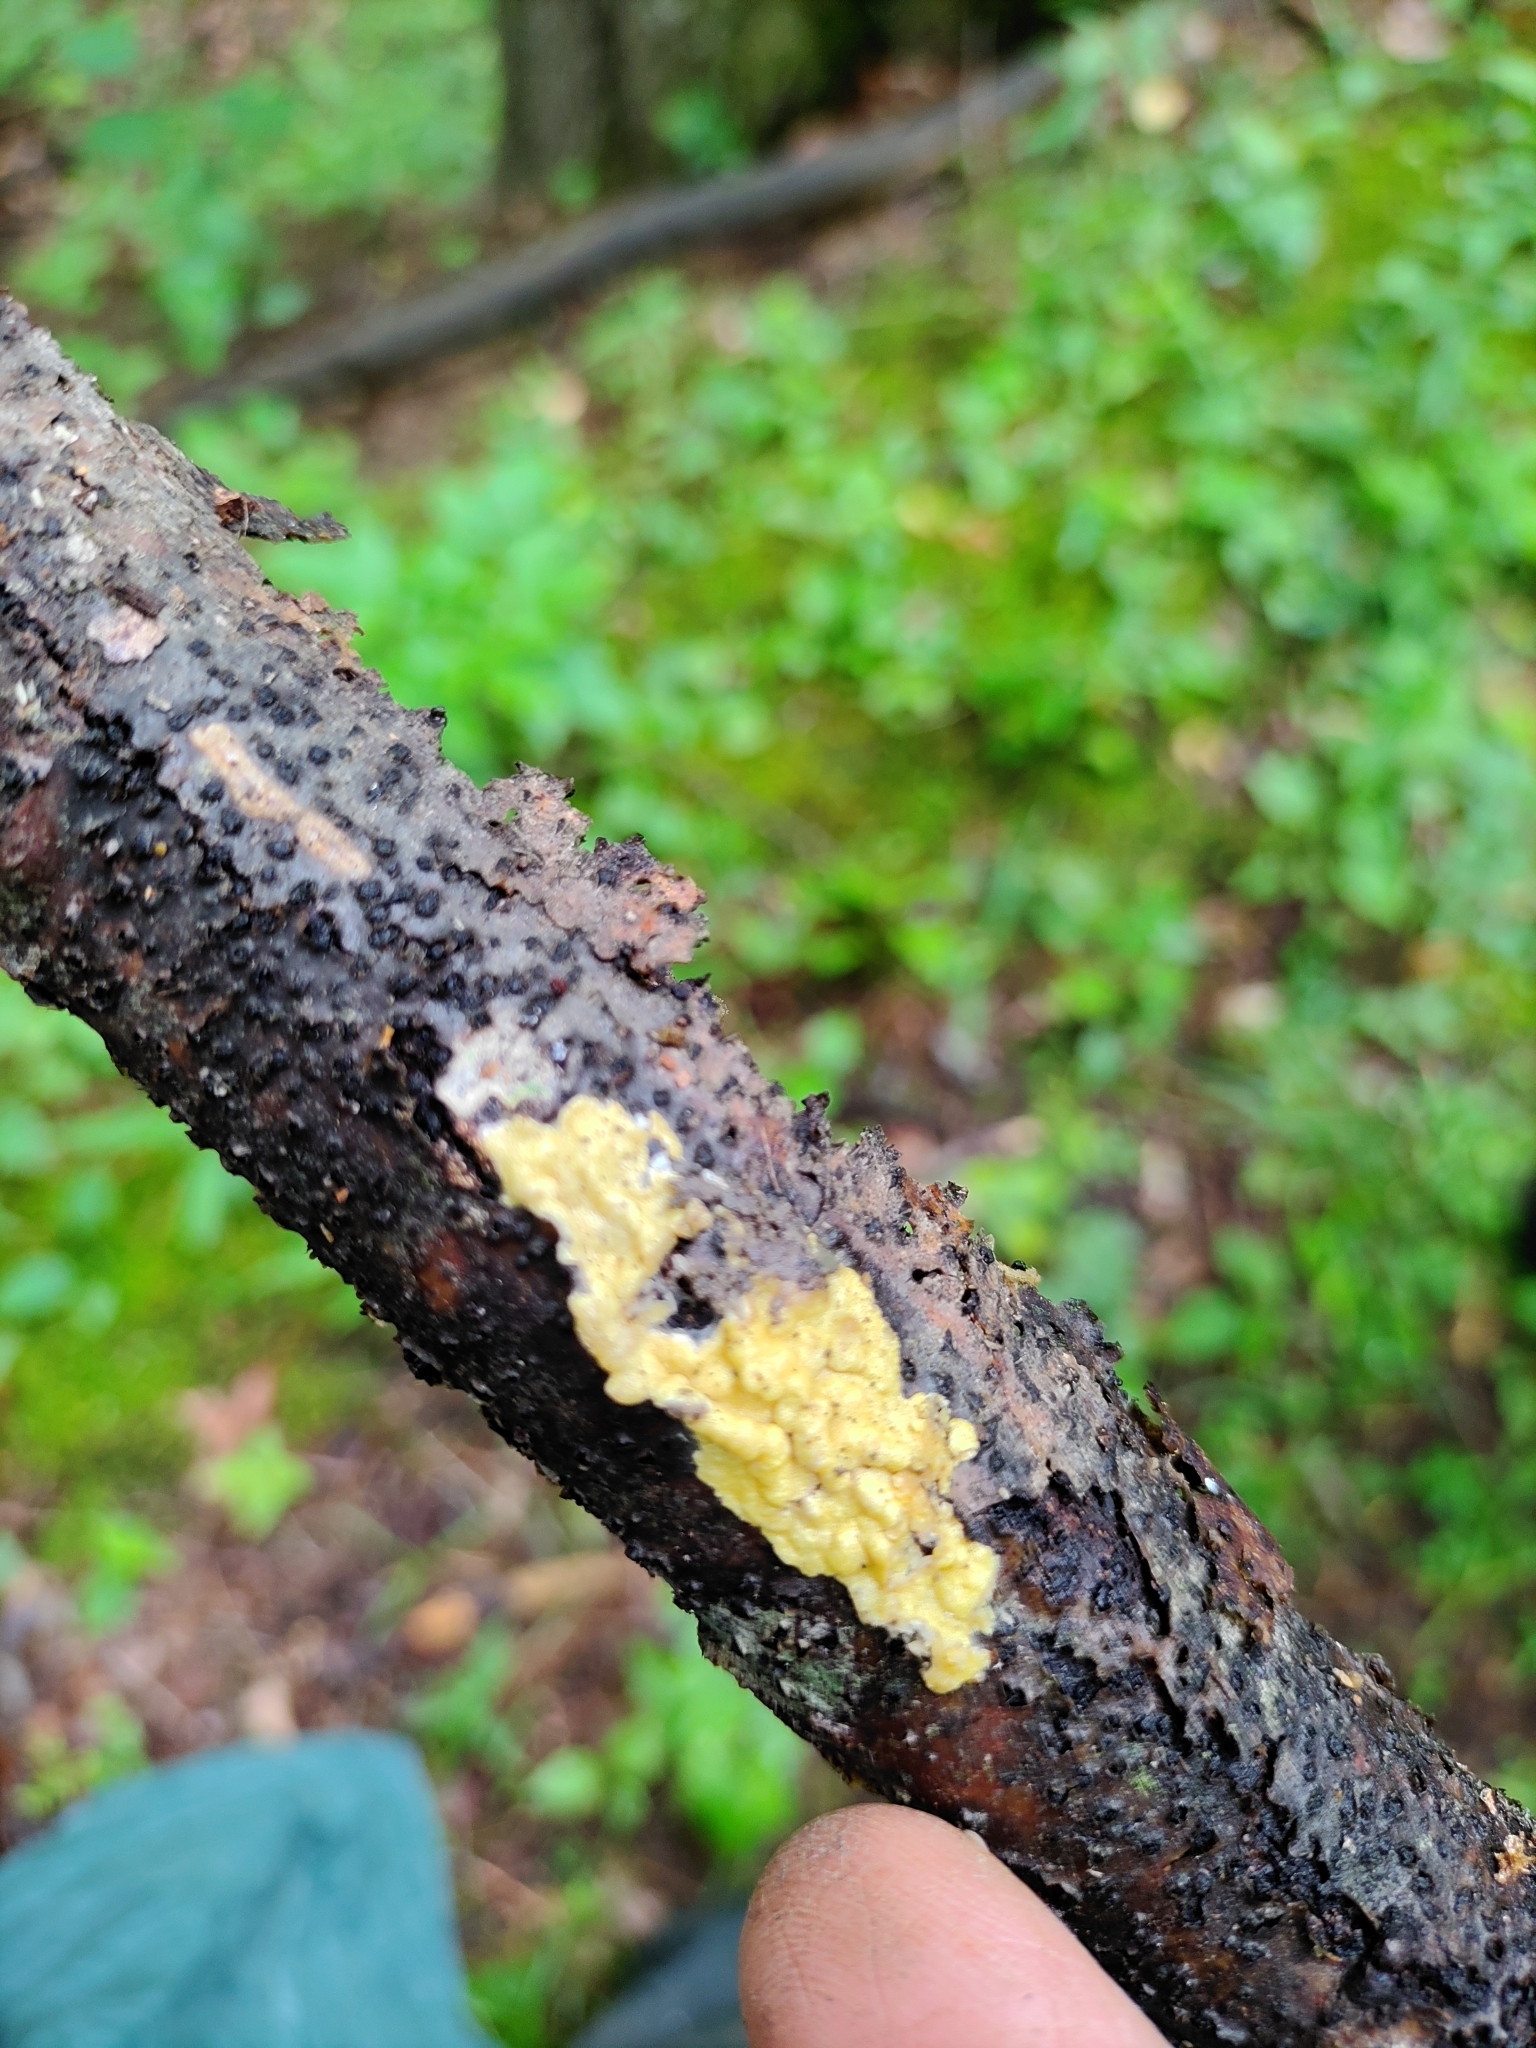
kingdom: Fungi
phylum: Ascomycota
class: Sordariomycetes
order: Hypocreales
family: Hypocreaceae
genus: Trichoderma
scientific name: Trichoderma sulphureum
